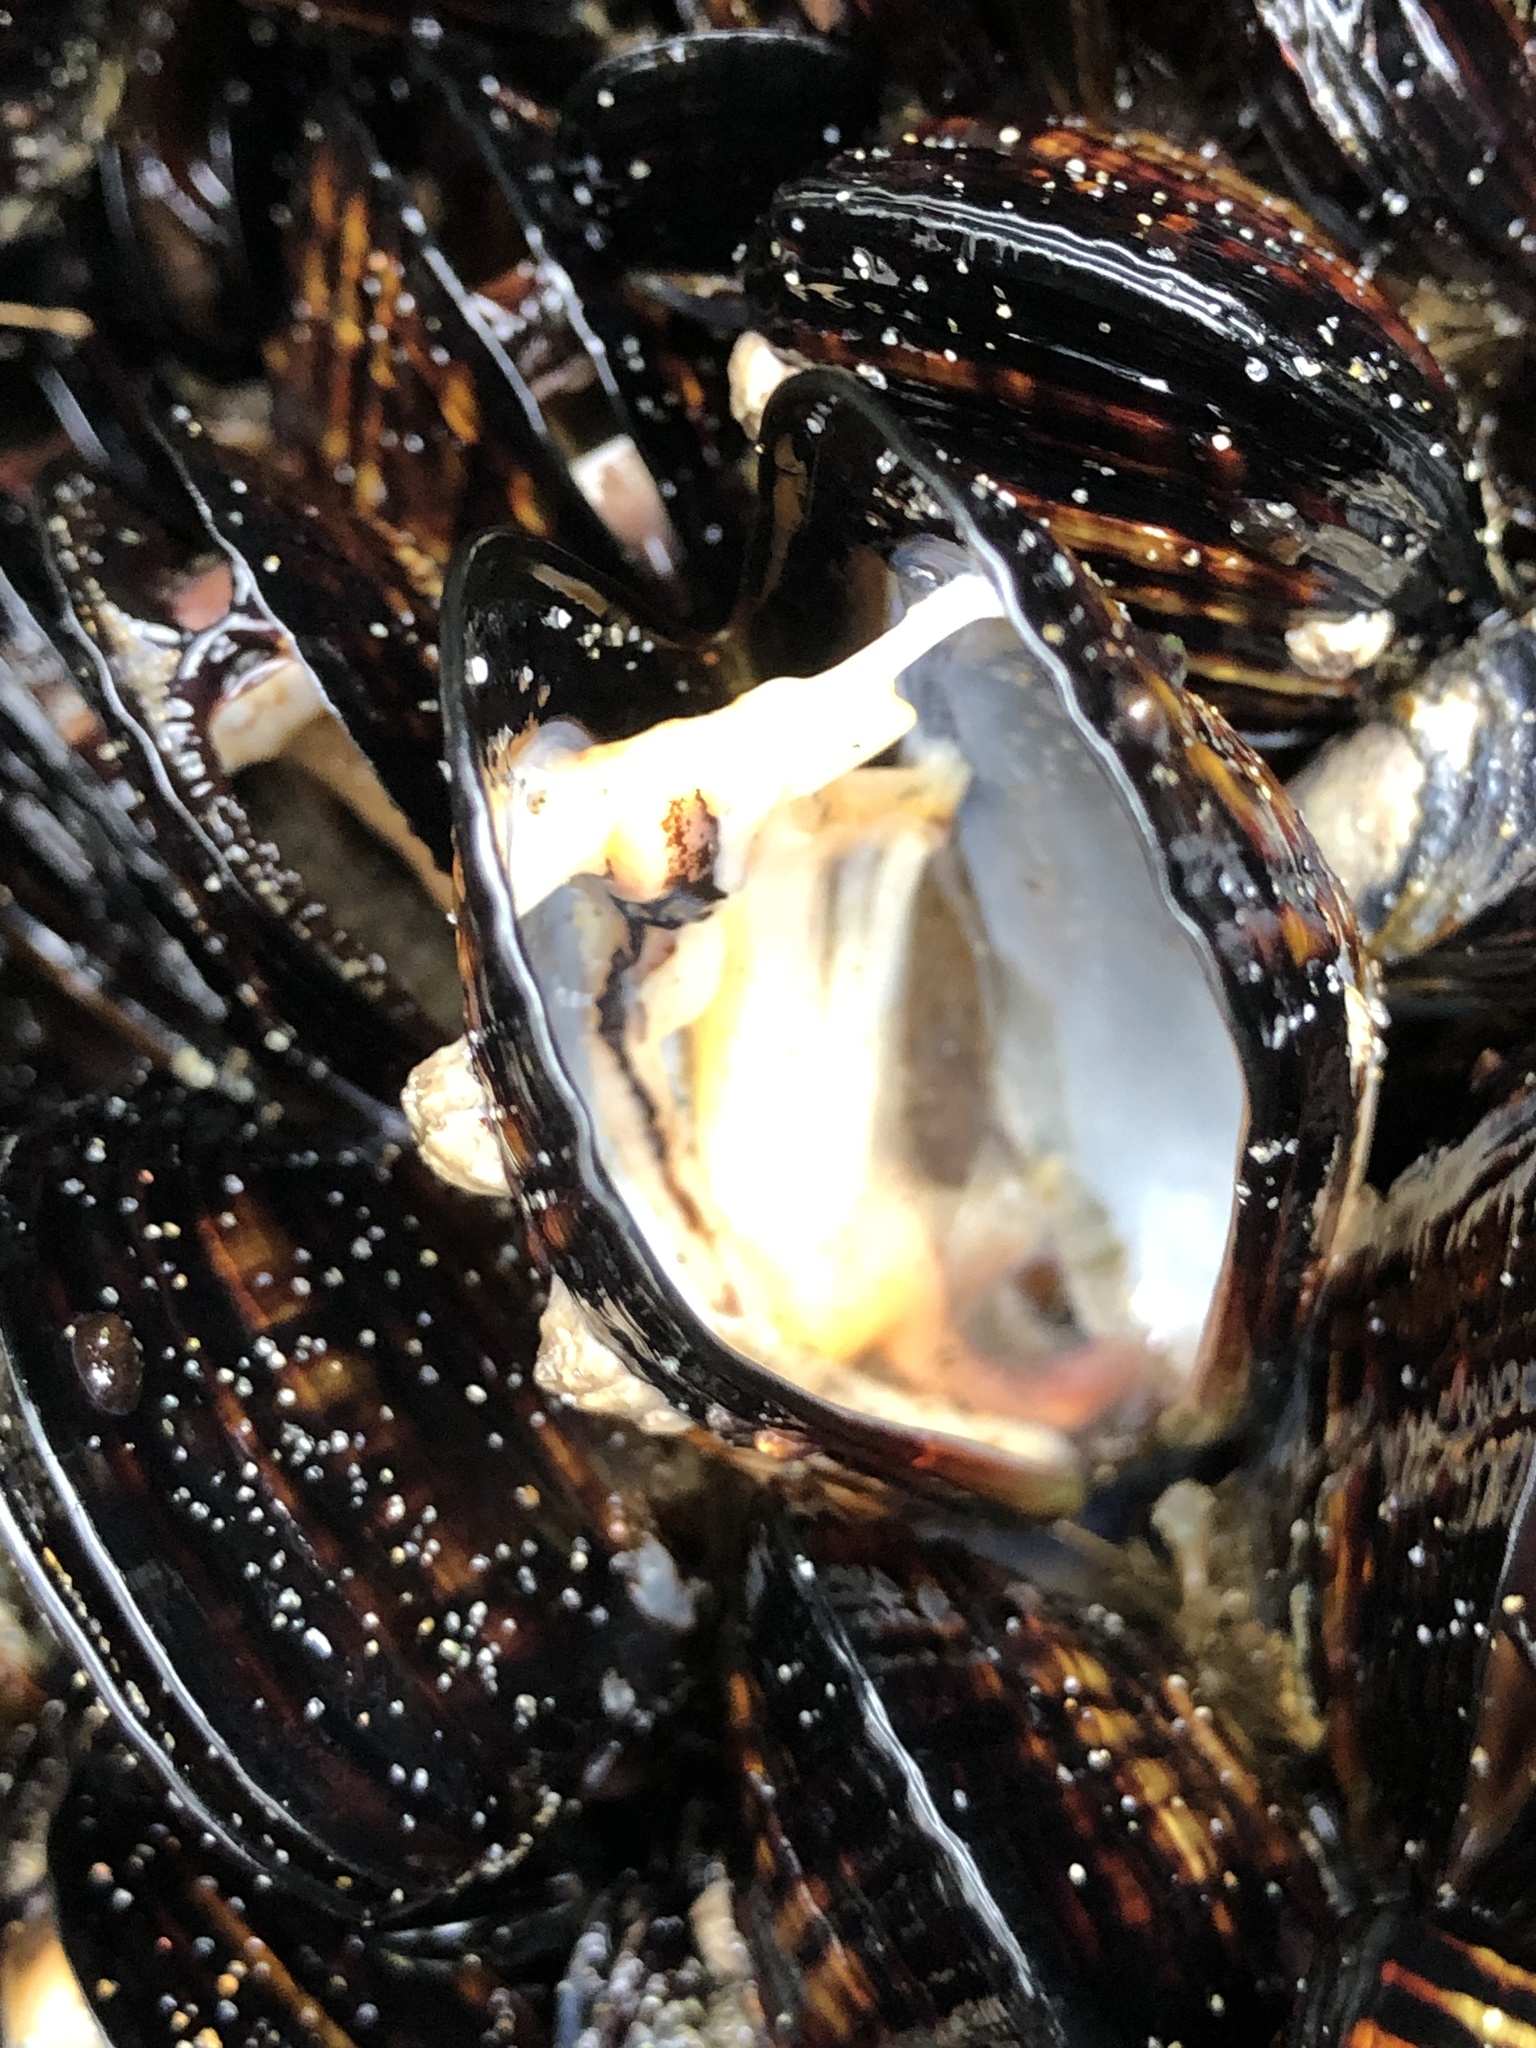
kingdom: Animalia
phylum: Mollusca
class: Bivalvia
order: Mytilida
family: Mytilidae
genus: Mytilus
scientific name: Mytilus californianus
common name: California mussel
